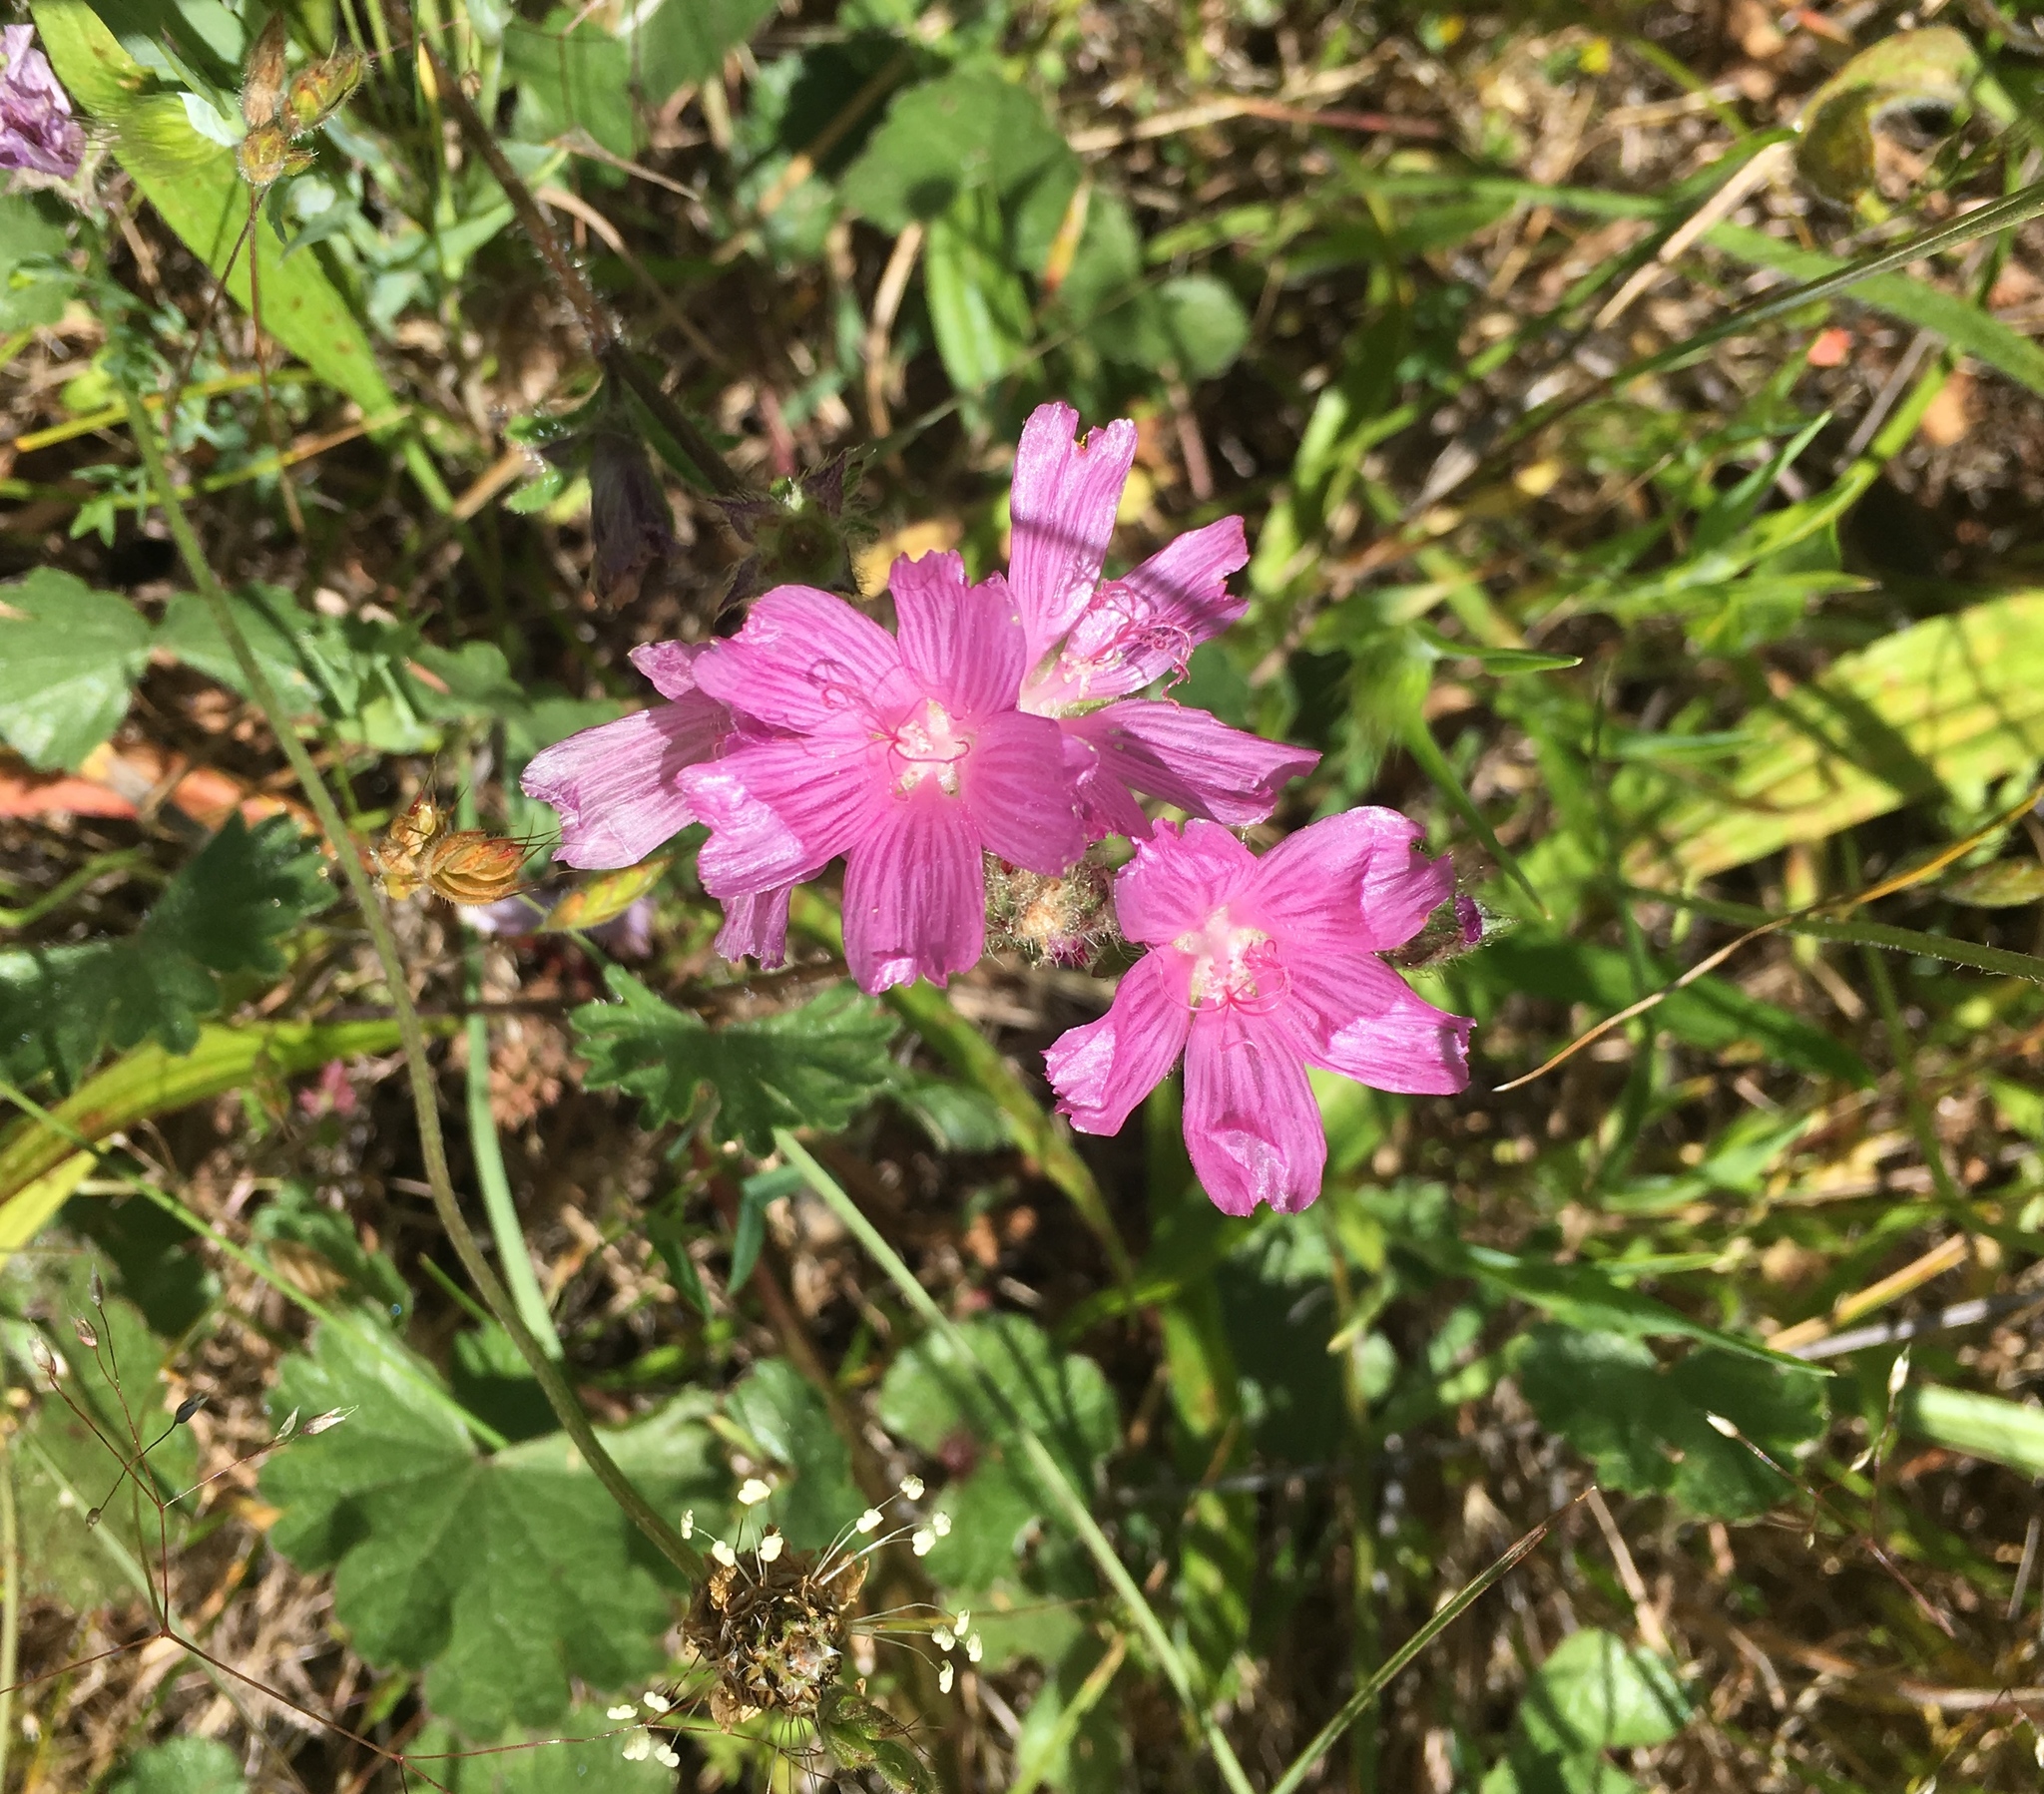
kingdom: Plantae
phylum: Tracheophyta
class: Magnoliopsida
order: Malvales
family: Malvaceae
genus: Sidalcea
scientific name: Sidalcea malviflora
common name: Greek mallow
